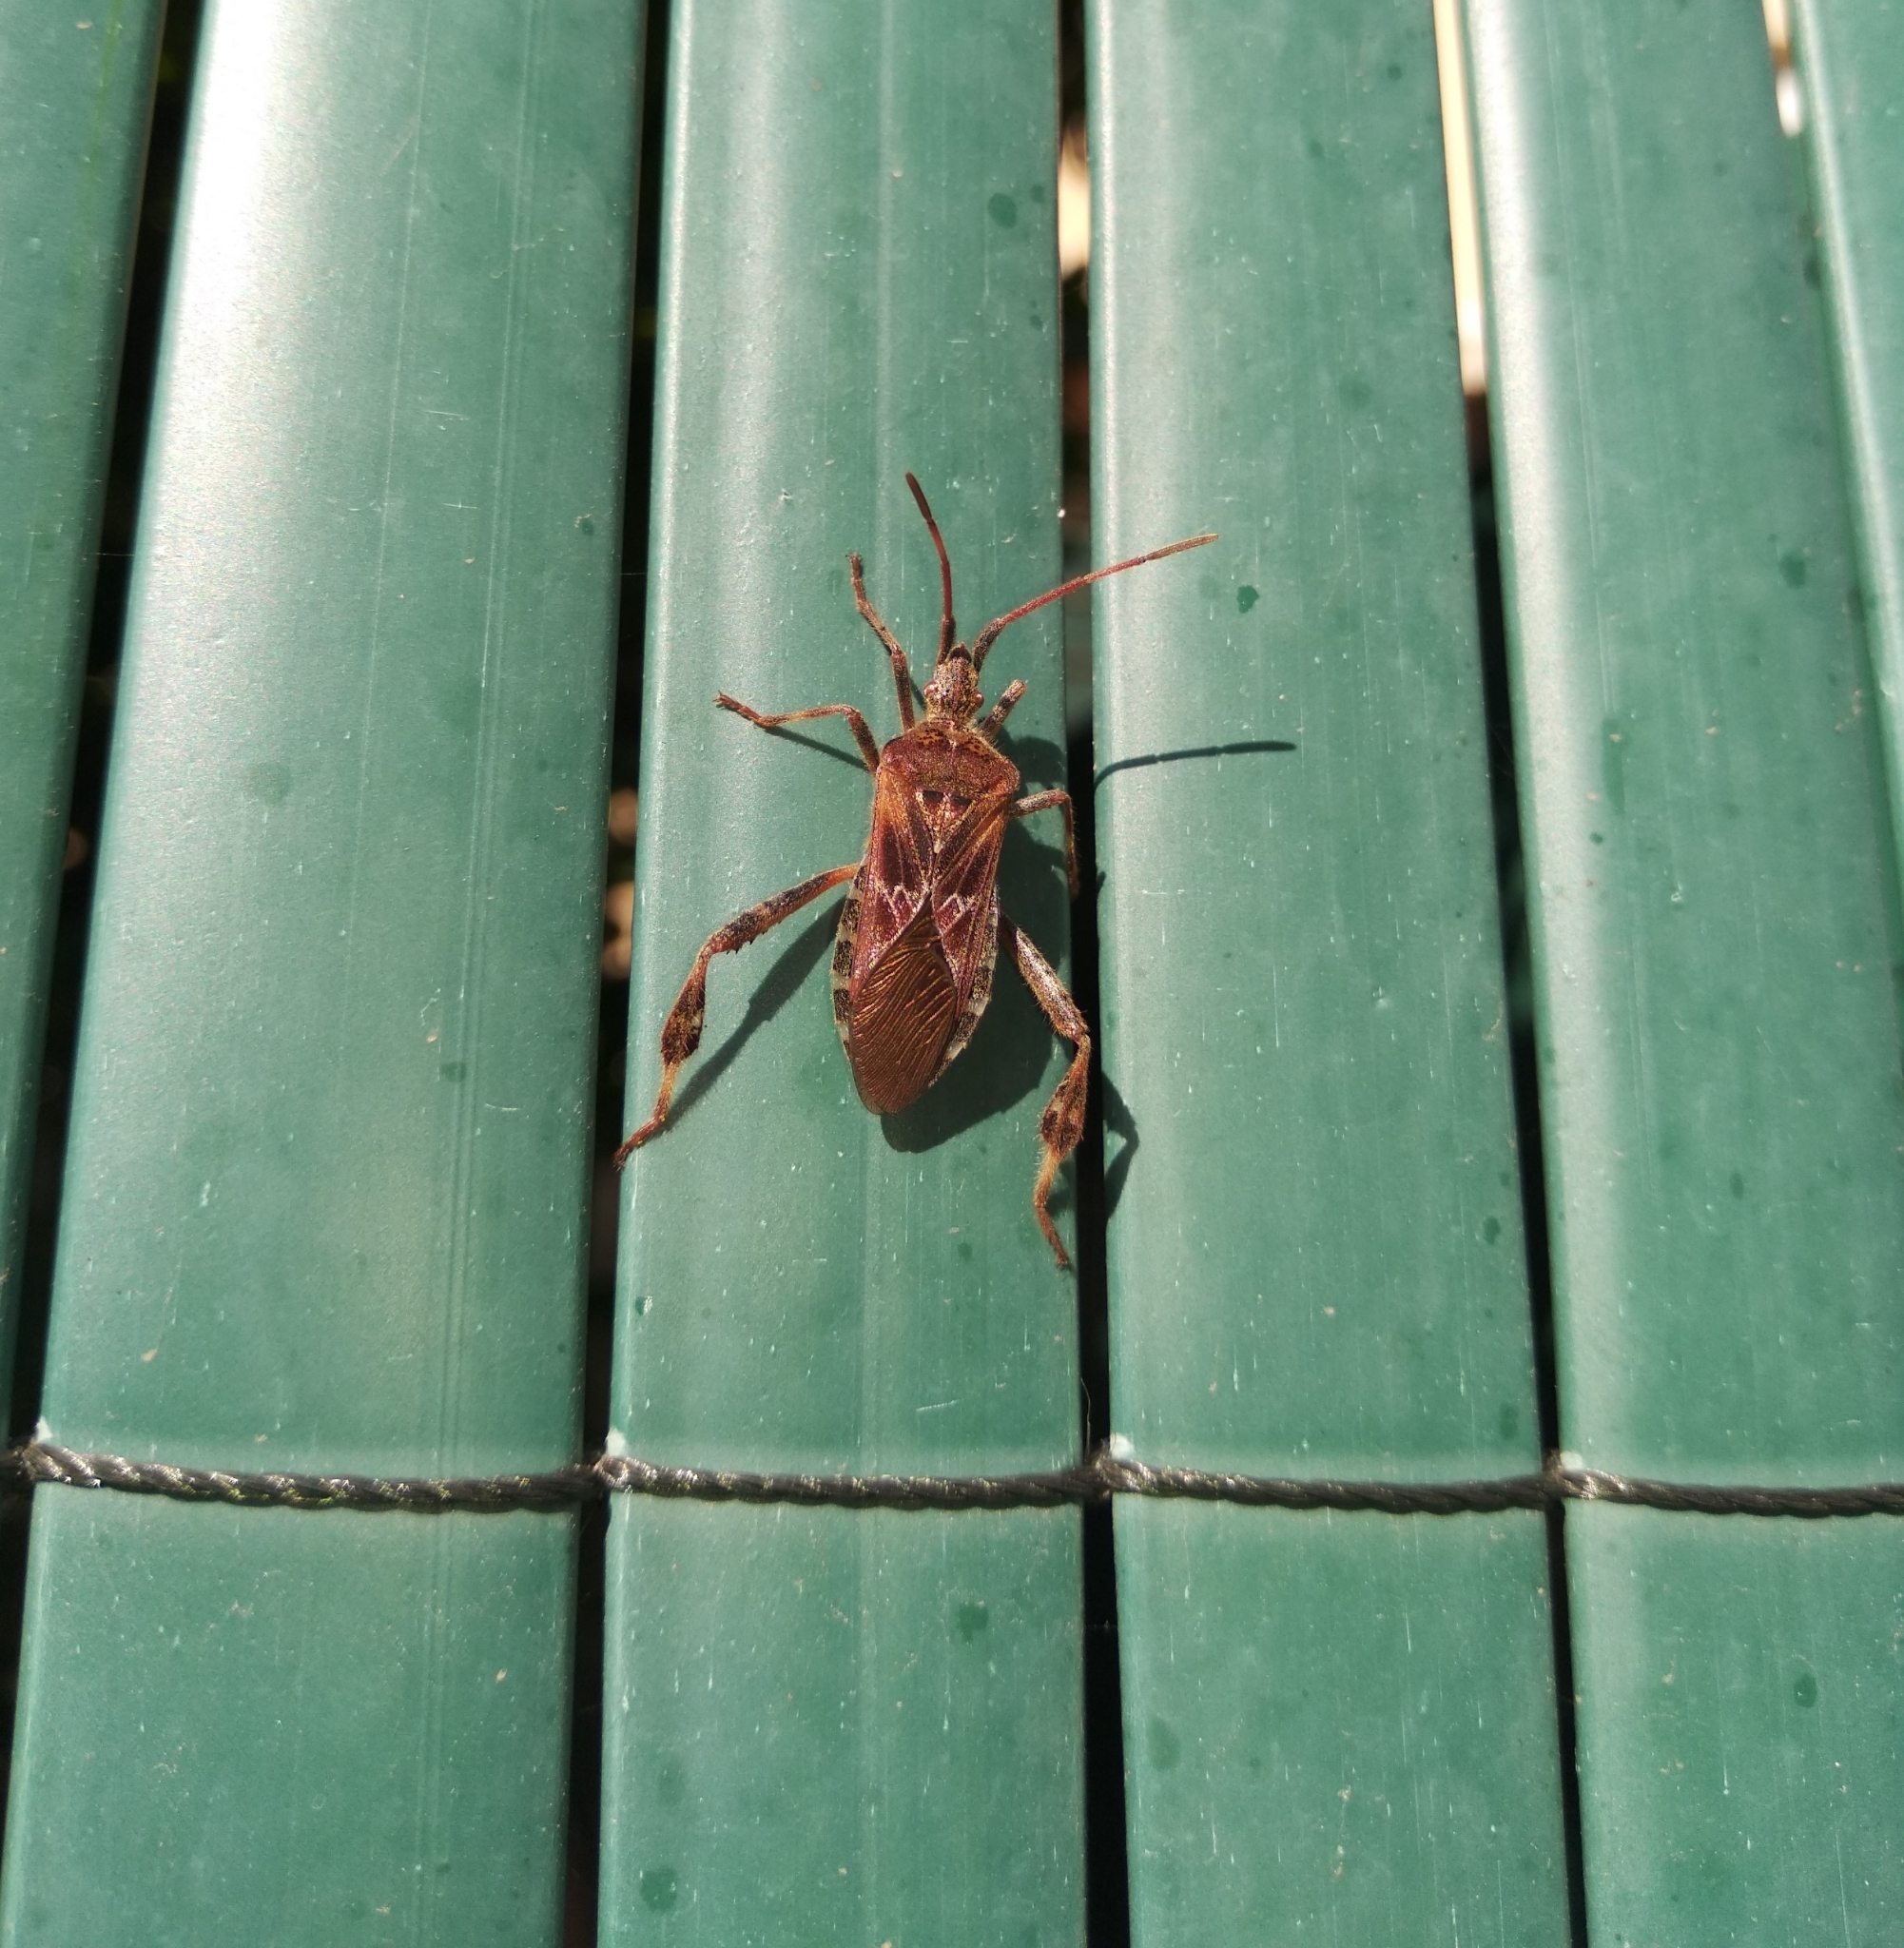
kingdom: Animalia
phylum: Arthropoda
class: Insecta
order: Hemiptera
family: Coreidae
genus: Leptoglossus
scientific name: Leptoglossus occidentalis
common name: Western conifer-seed bug
